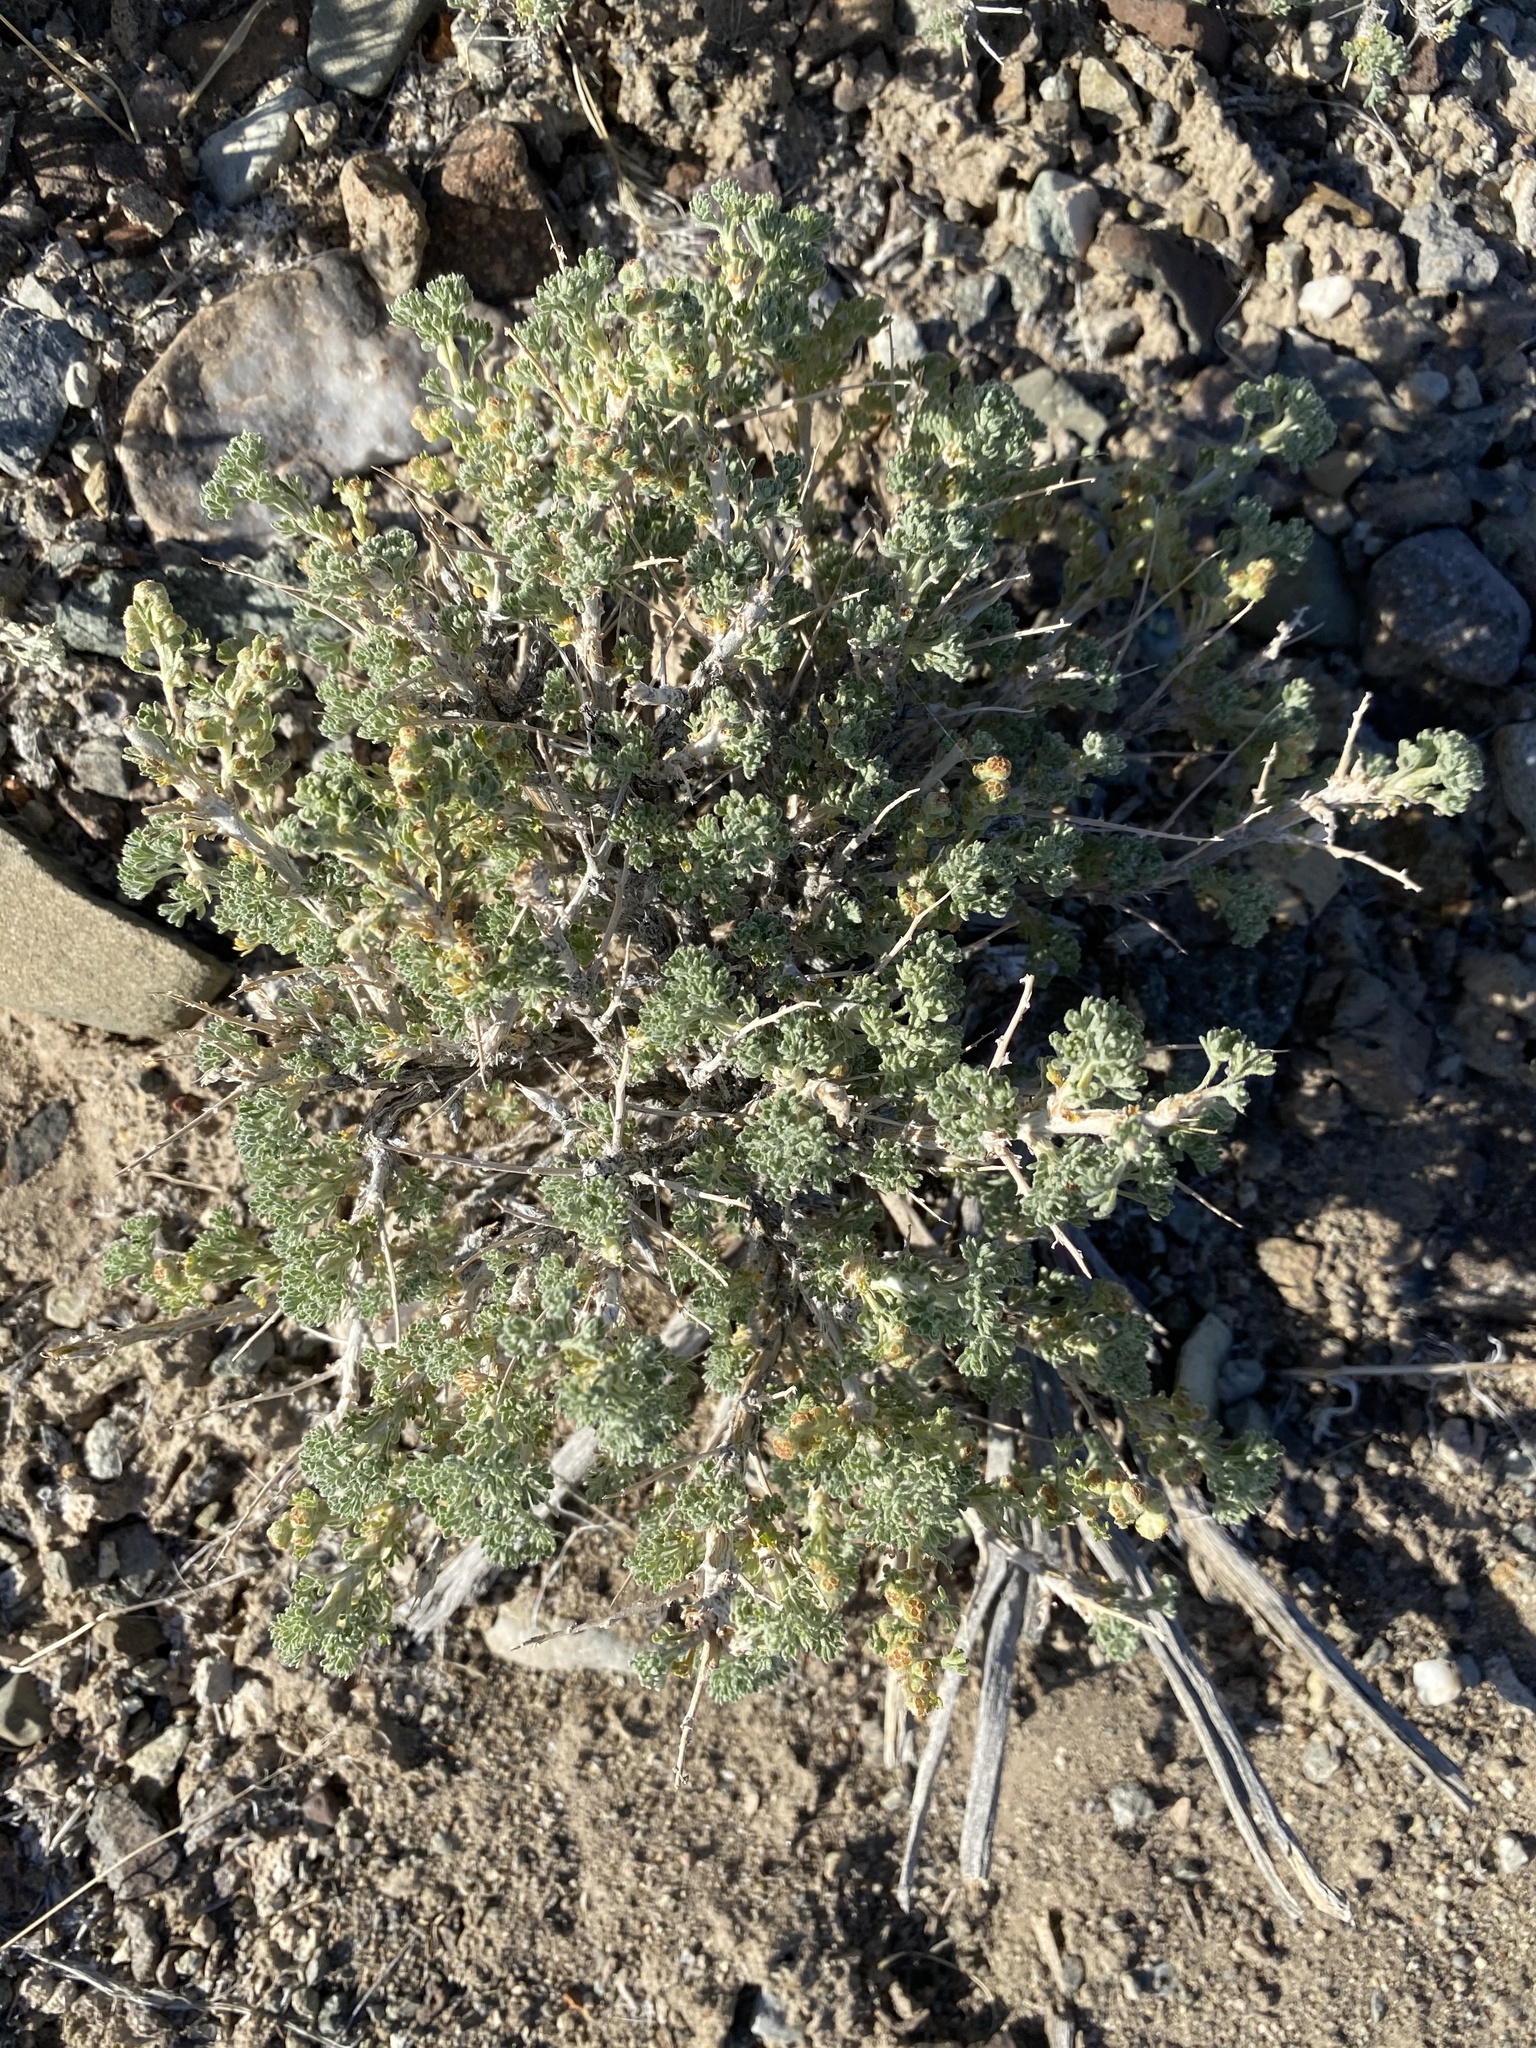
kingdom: Plantae
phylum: Tracheophyta
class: Magnoliopsida
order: Asterales
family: Asteraceae
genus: Artemisia
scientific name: Artemisia spinescens
